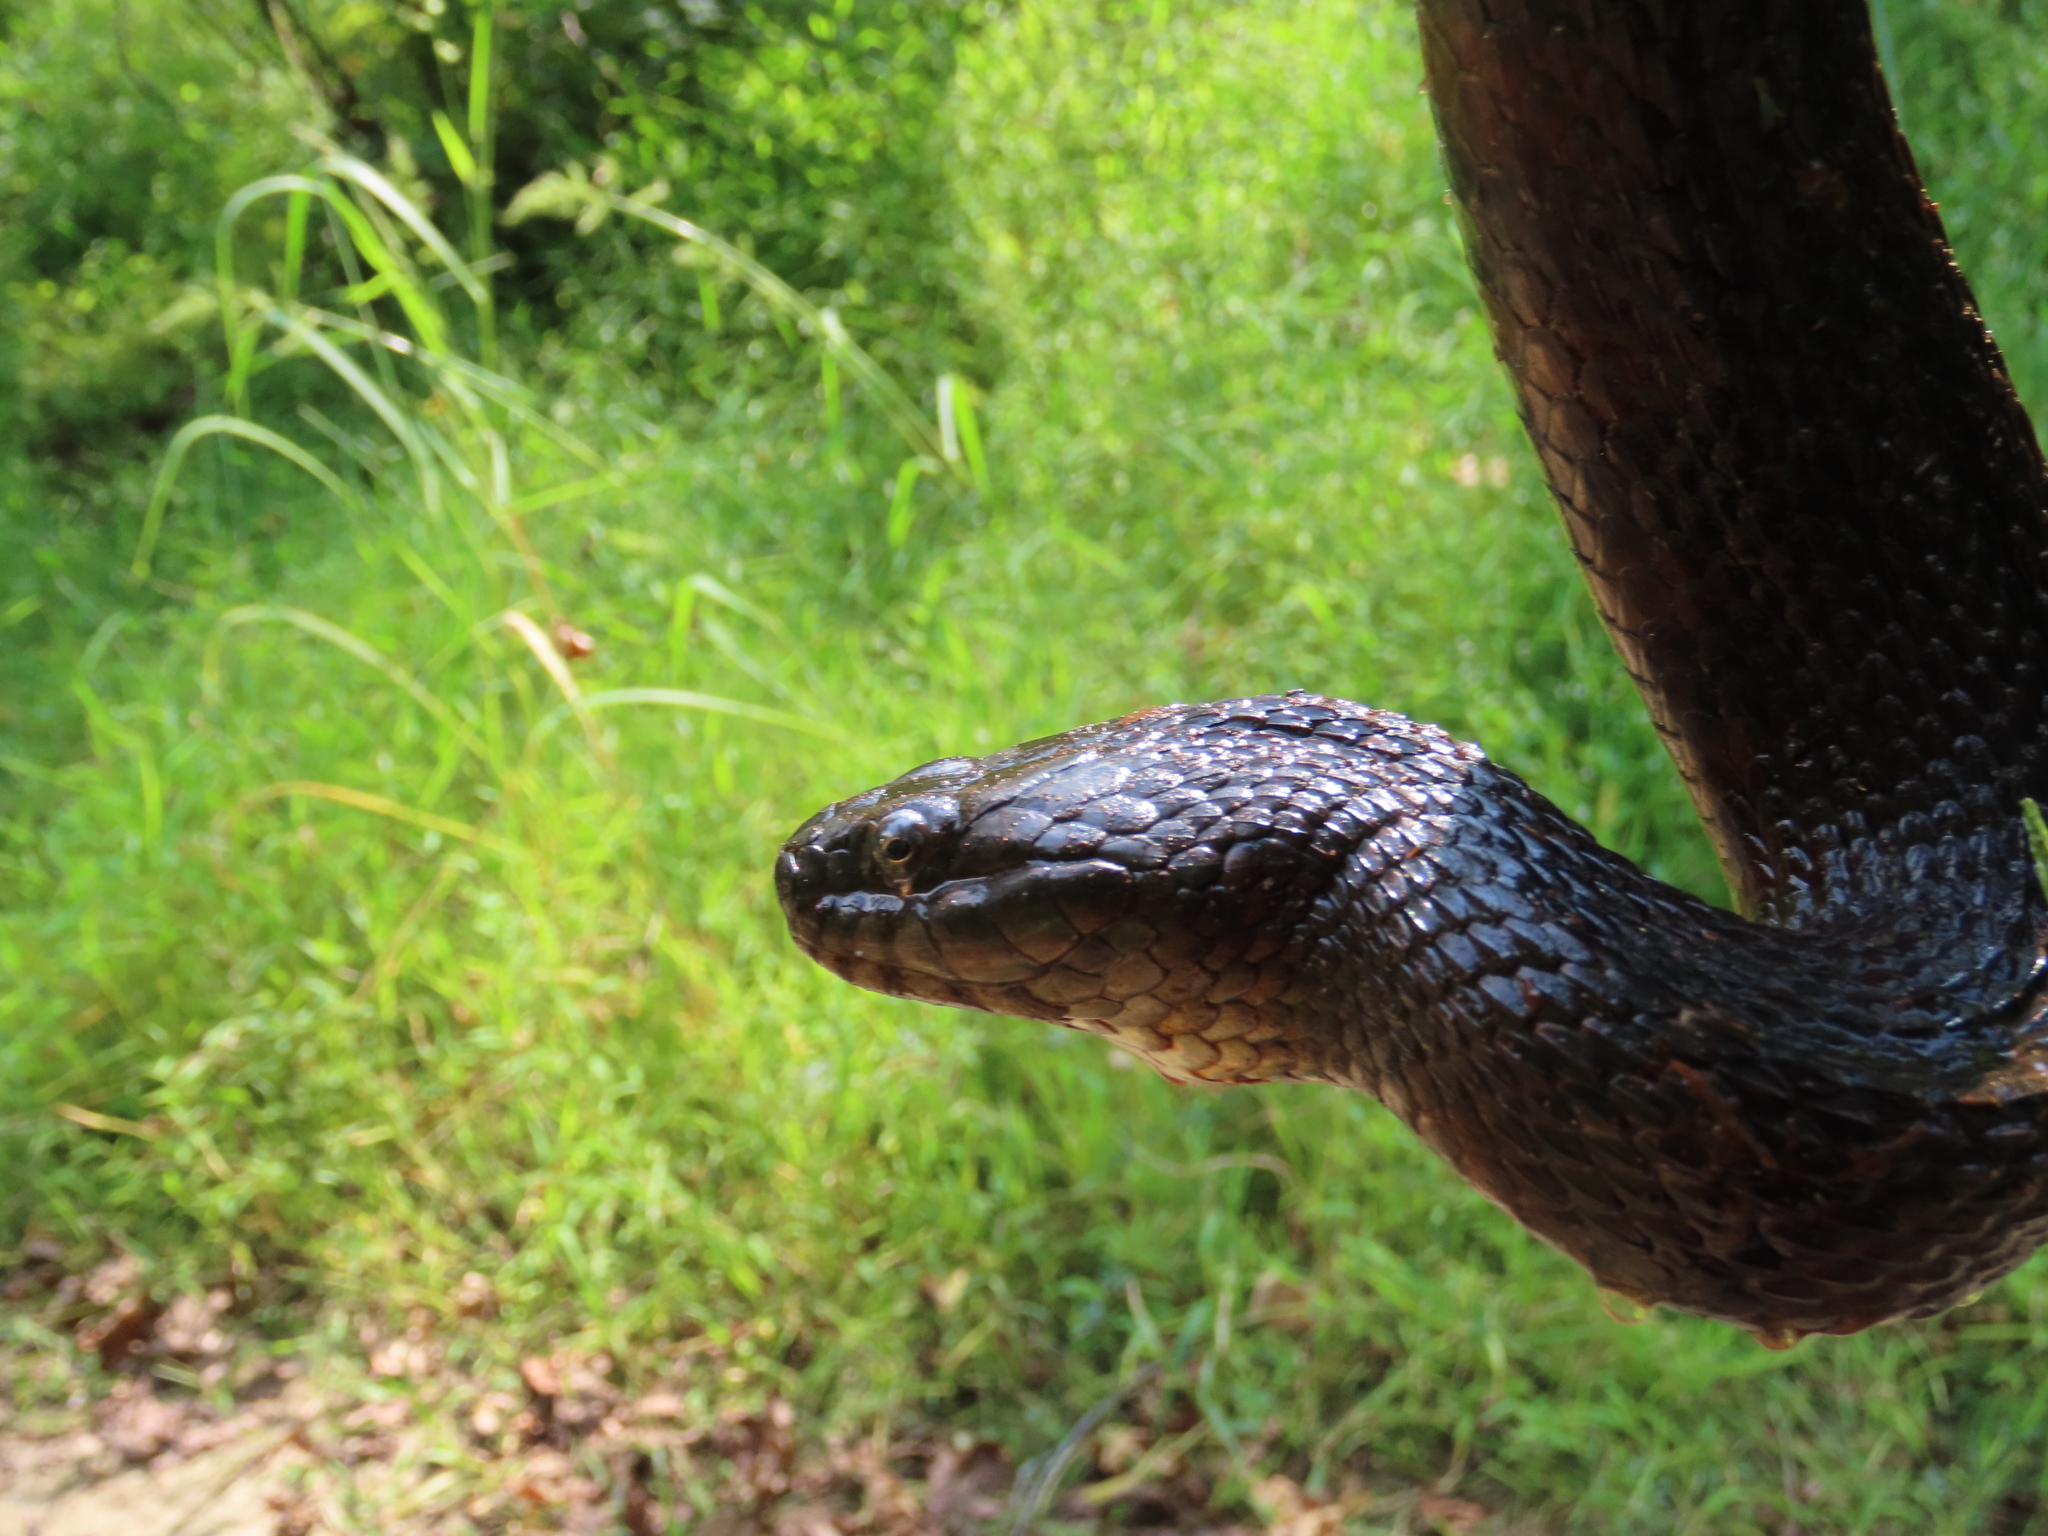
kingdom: Animalia
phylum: Chordata
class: Squamata
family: Colubridae
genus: Nerodia
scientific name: Nerodia sipedon
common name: Northern water snake
